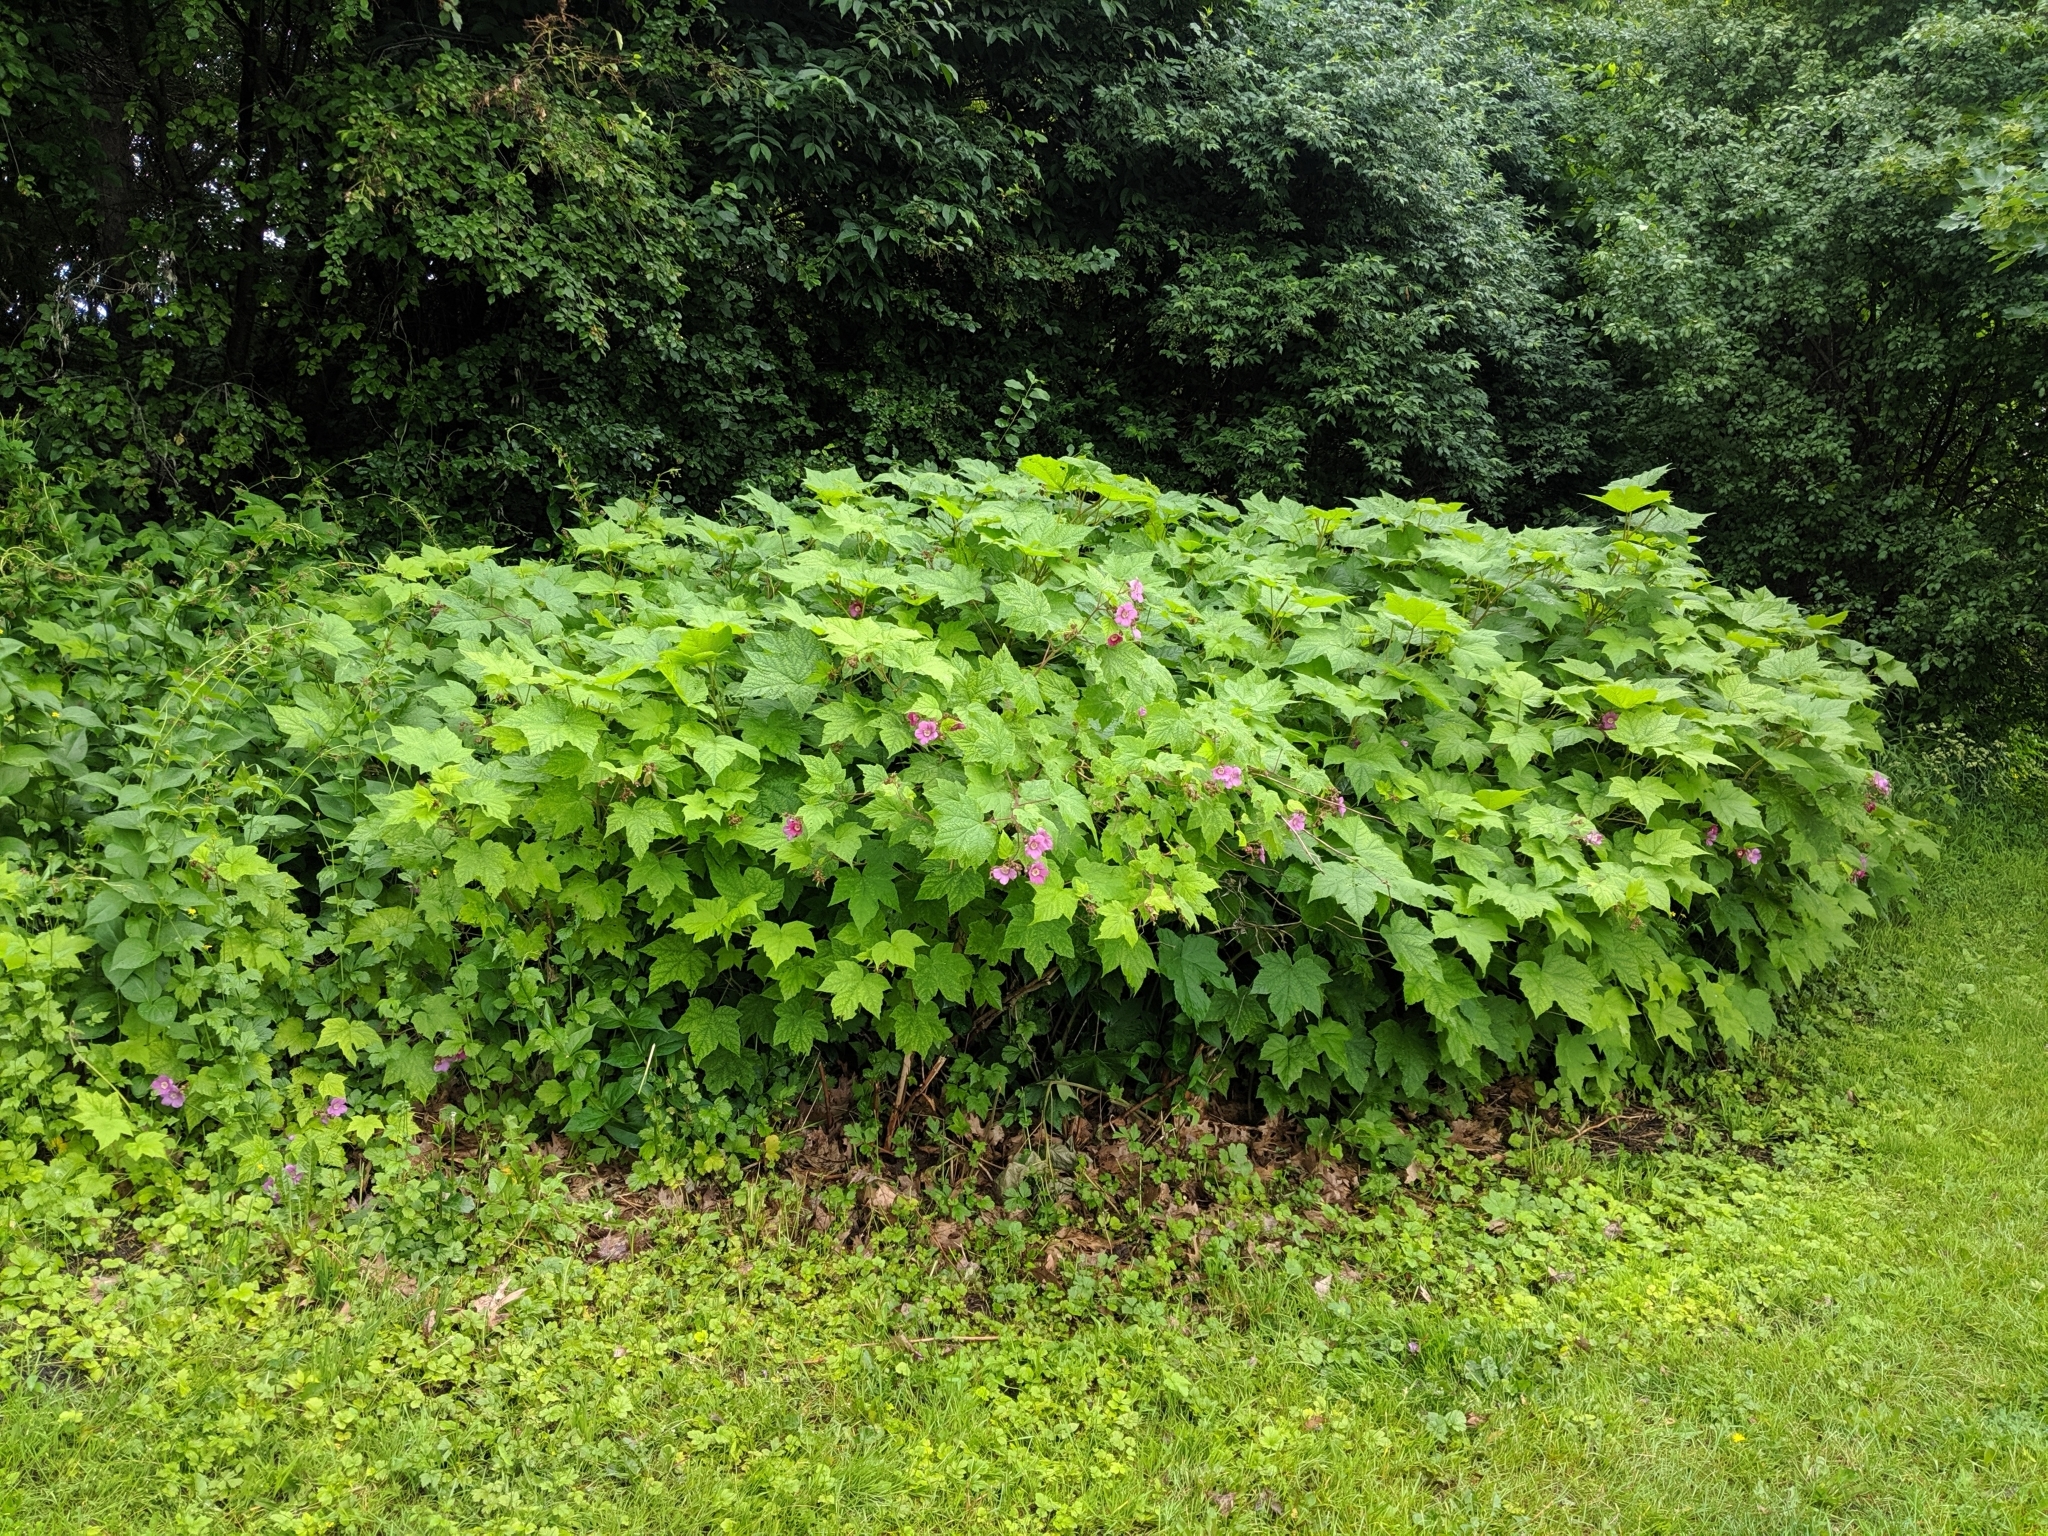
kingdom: Plantae
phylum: Tracheophyta
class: Magnoliopsida
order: Rosales
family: Rosaceae
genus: Rubus
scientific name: Rubus odoratus
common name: Purple-flowered raspberry
